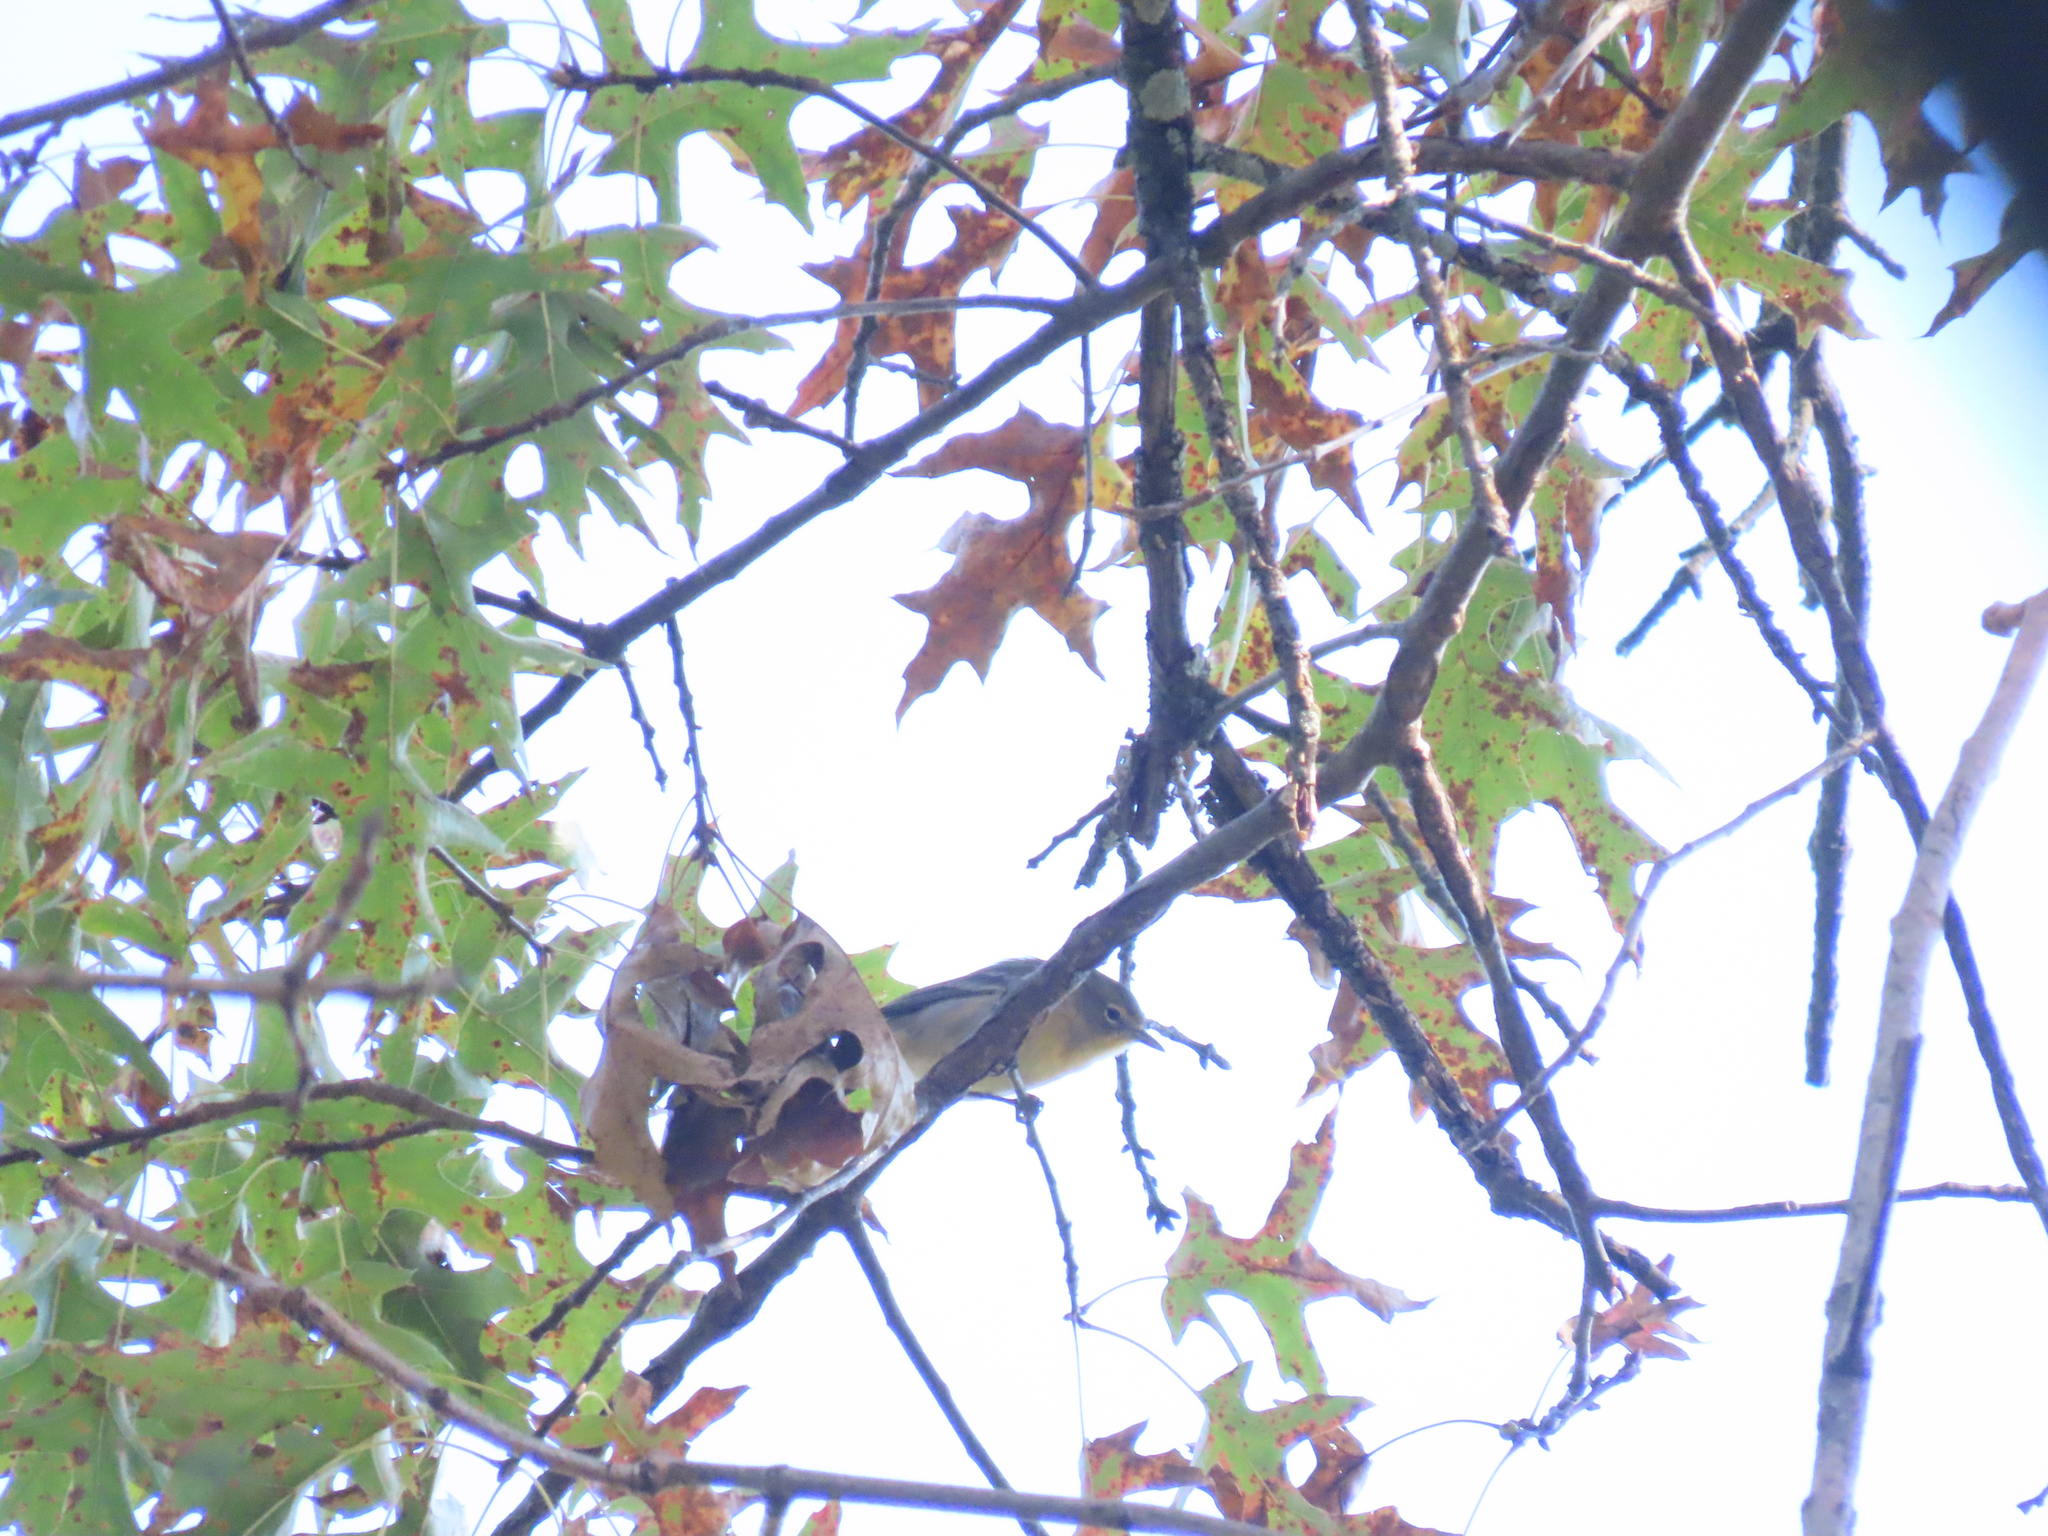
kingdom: Animalia
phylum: Chordata
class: Aves
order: Passeriformes
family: Parulidae
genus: Setophaga
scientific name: Setophaga pinus
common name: Pine warbler
